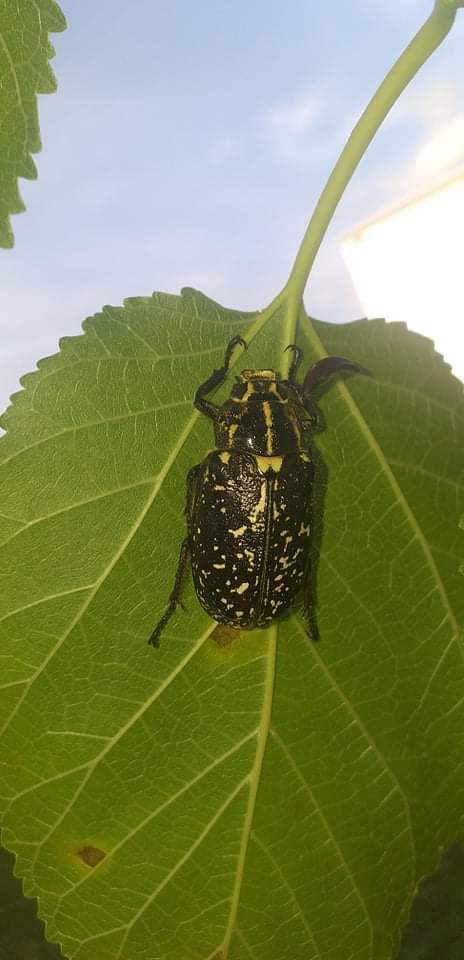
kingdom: Animalia
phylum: Arthropoda
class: Insecta
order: Coleoptera
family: Scarabaeidae
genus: Polyphylla
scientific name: Polyphylla fullo
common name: Pine chafer
